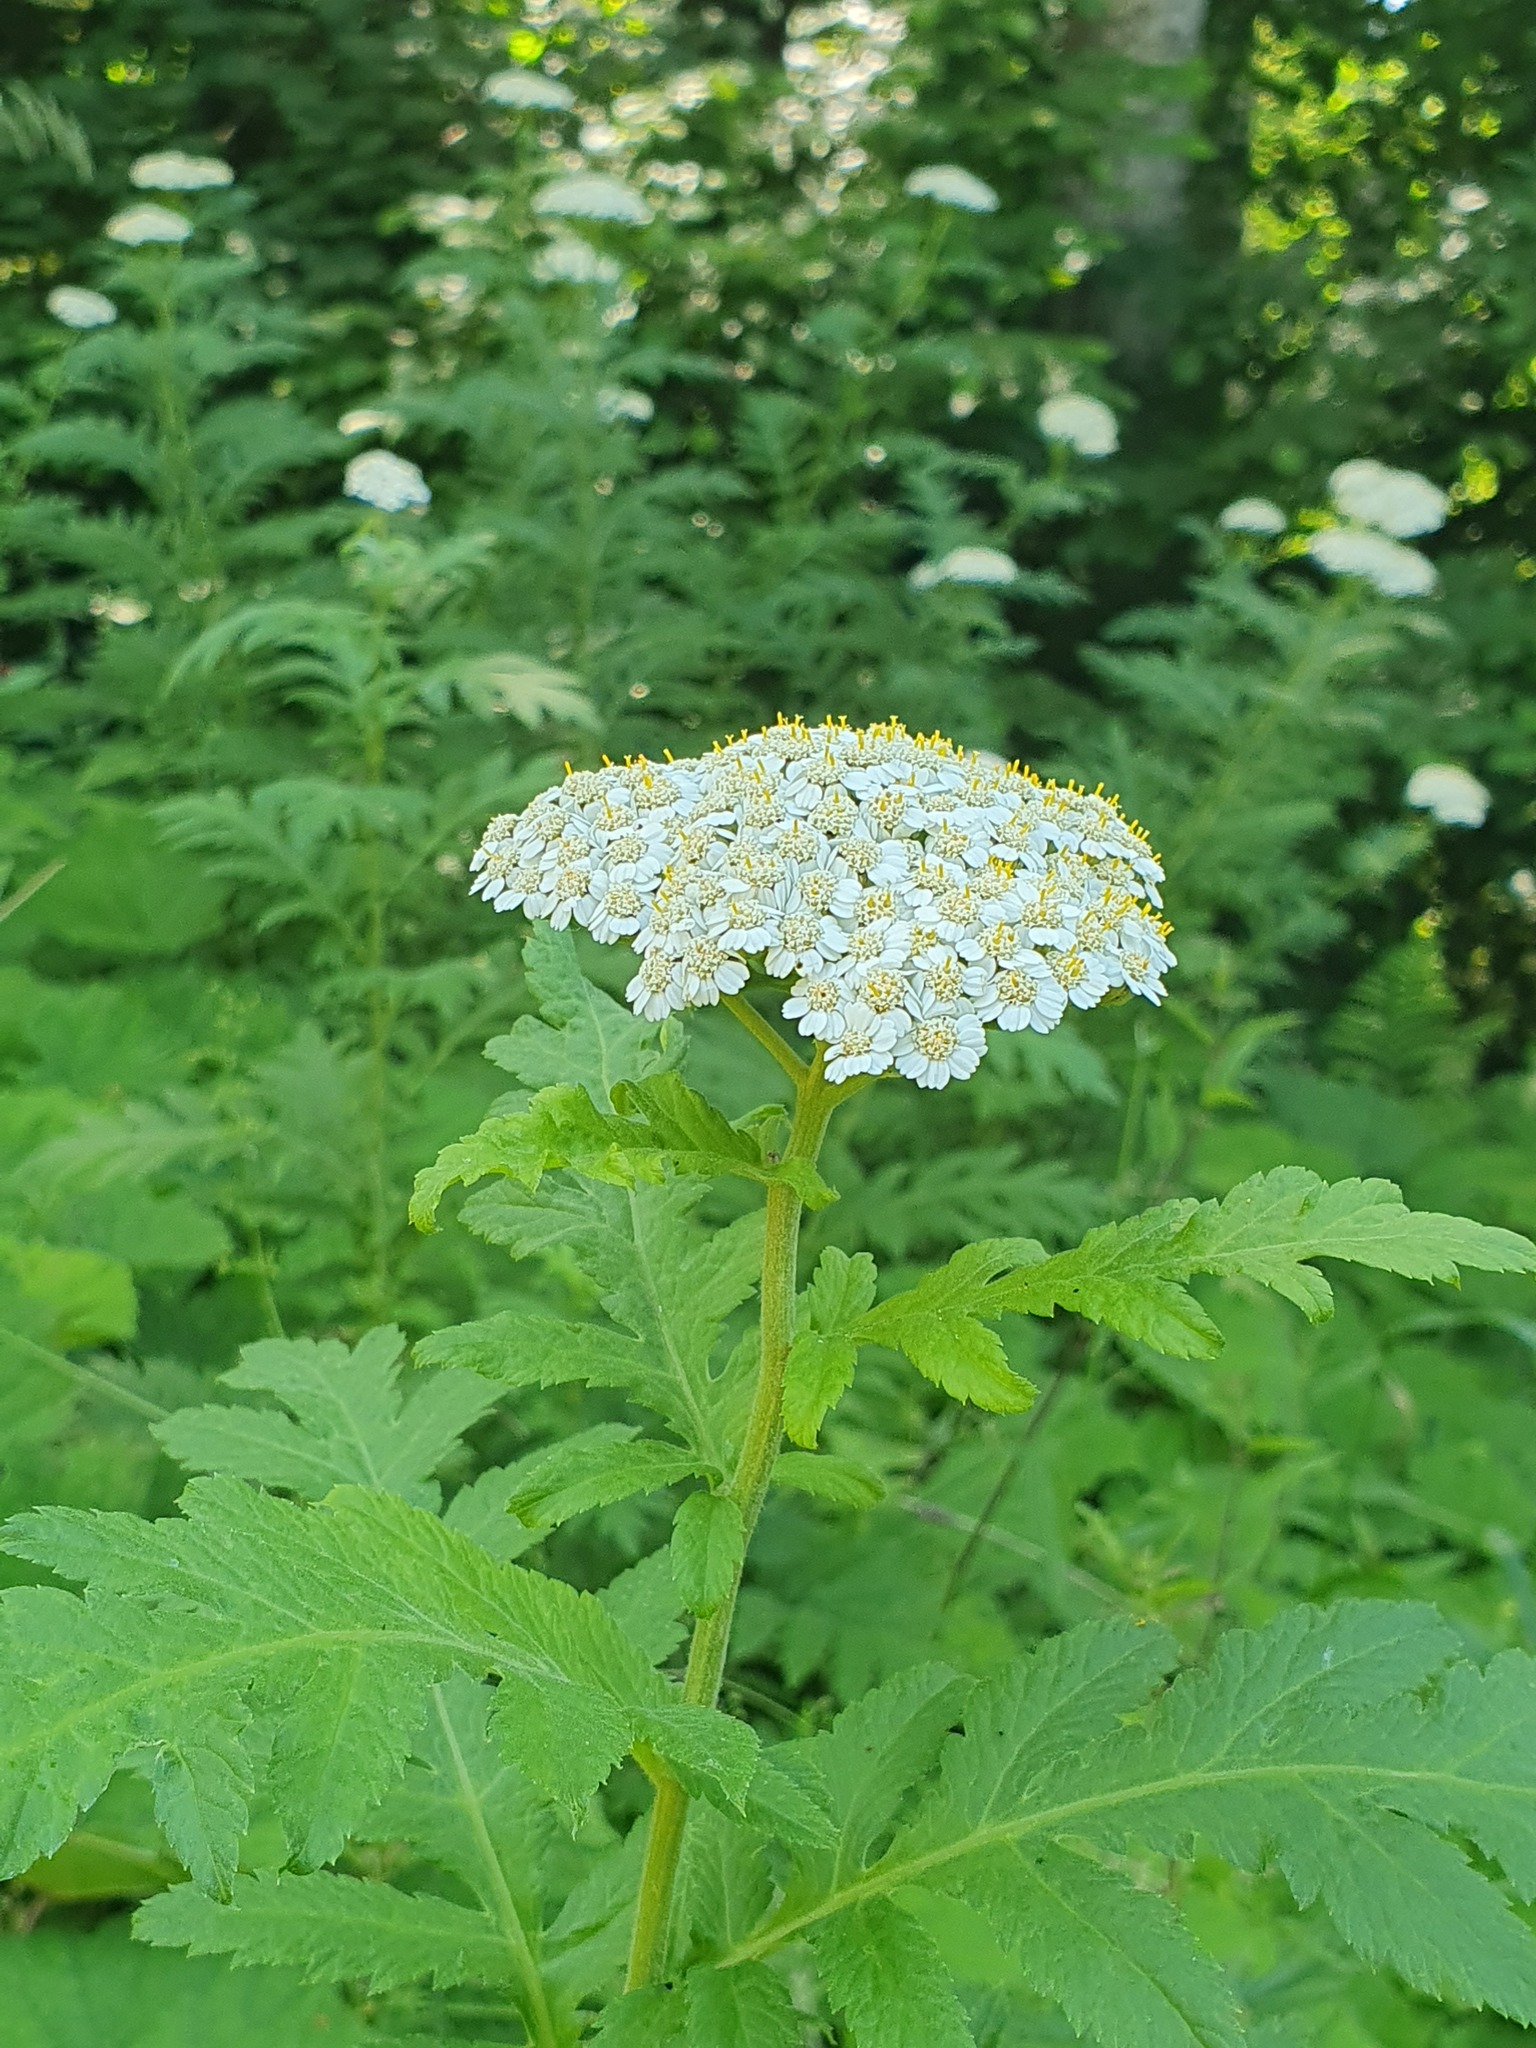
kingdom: Plantae
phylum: Tracheophyta
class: Magnoliopsida
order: Asterales
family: Asteraceae
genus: Tanacetum
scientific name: Tanacetum macrophyllum
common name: Rayed tansy
